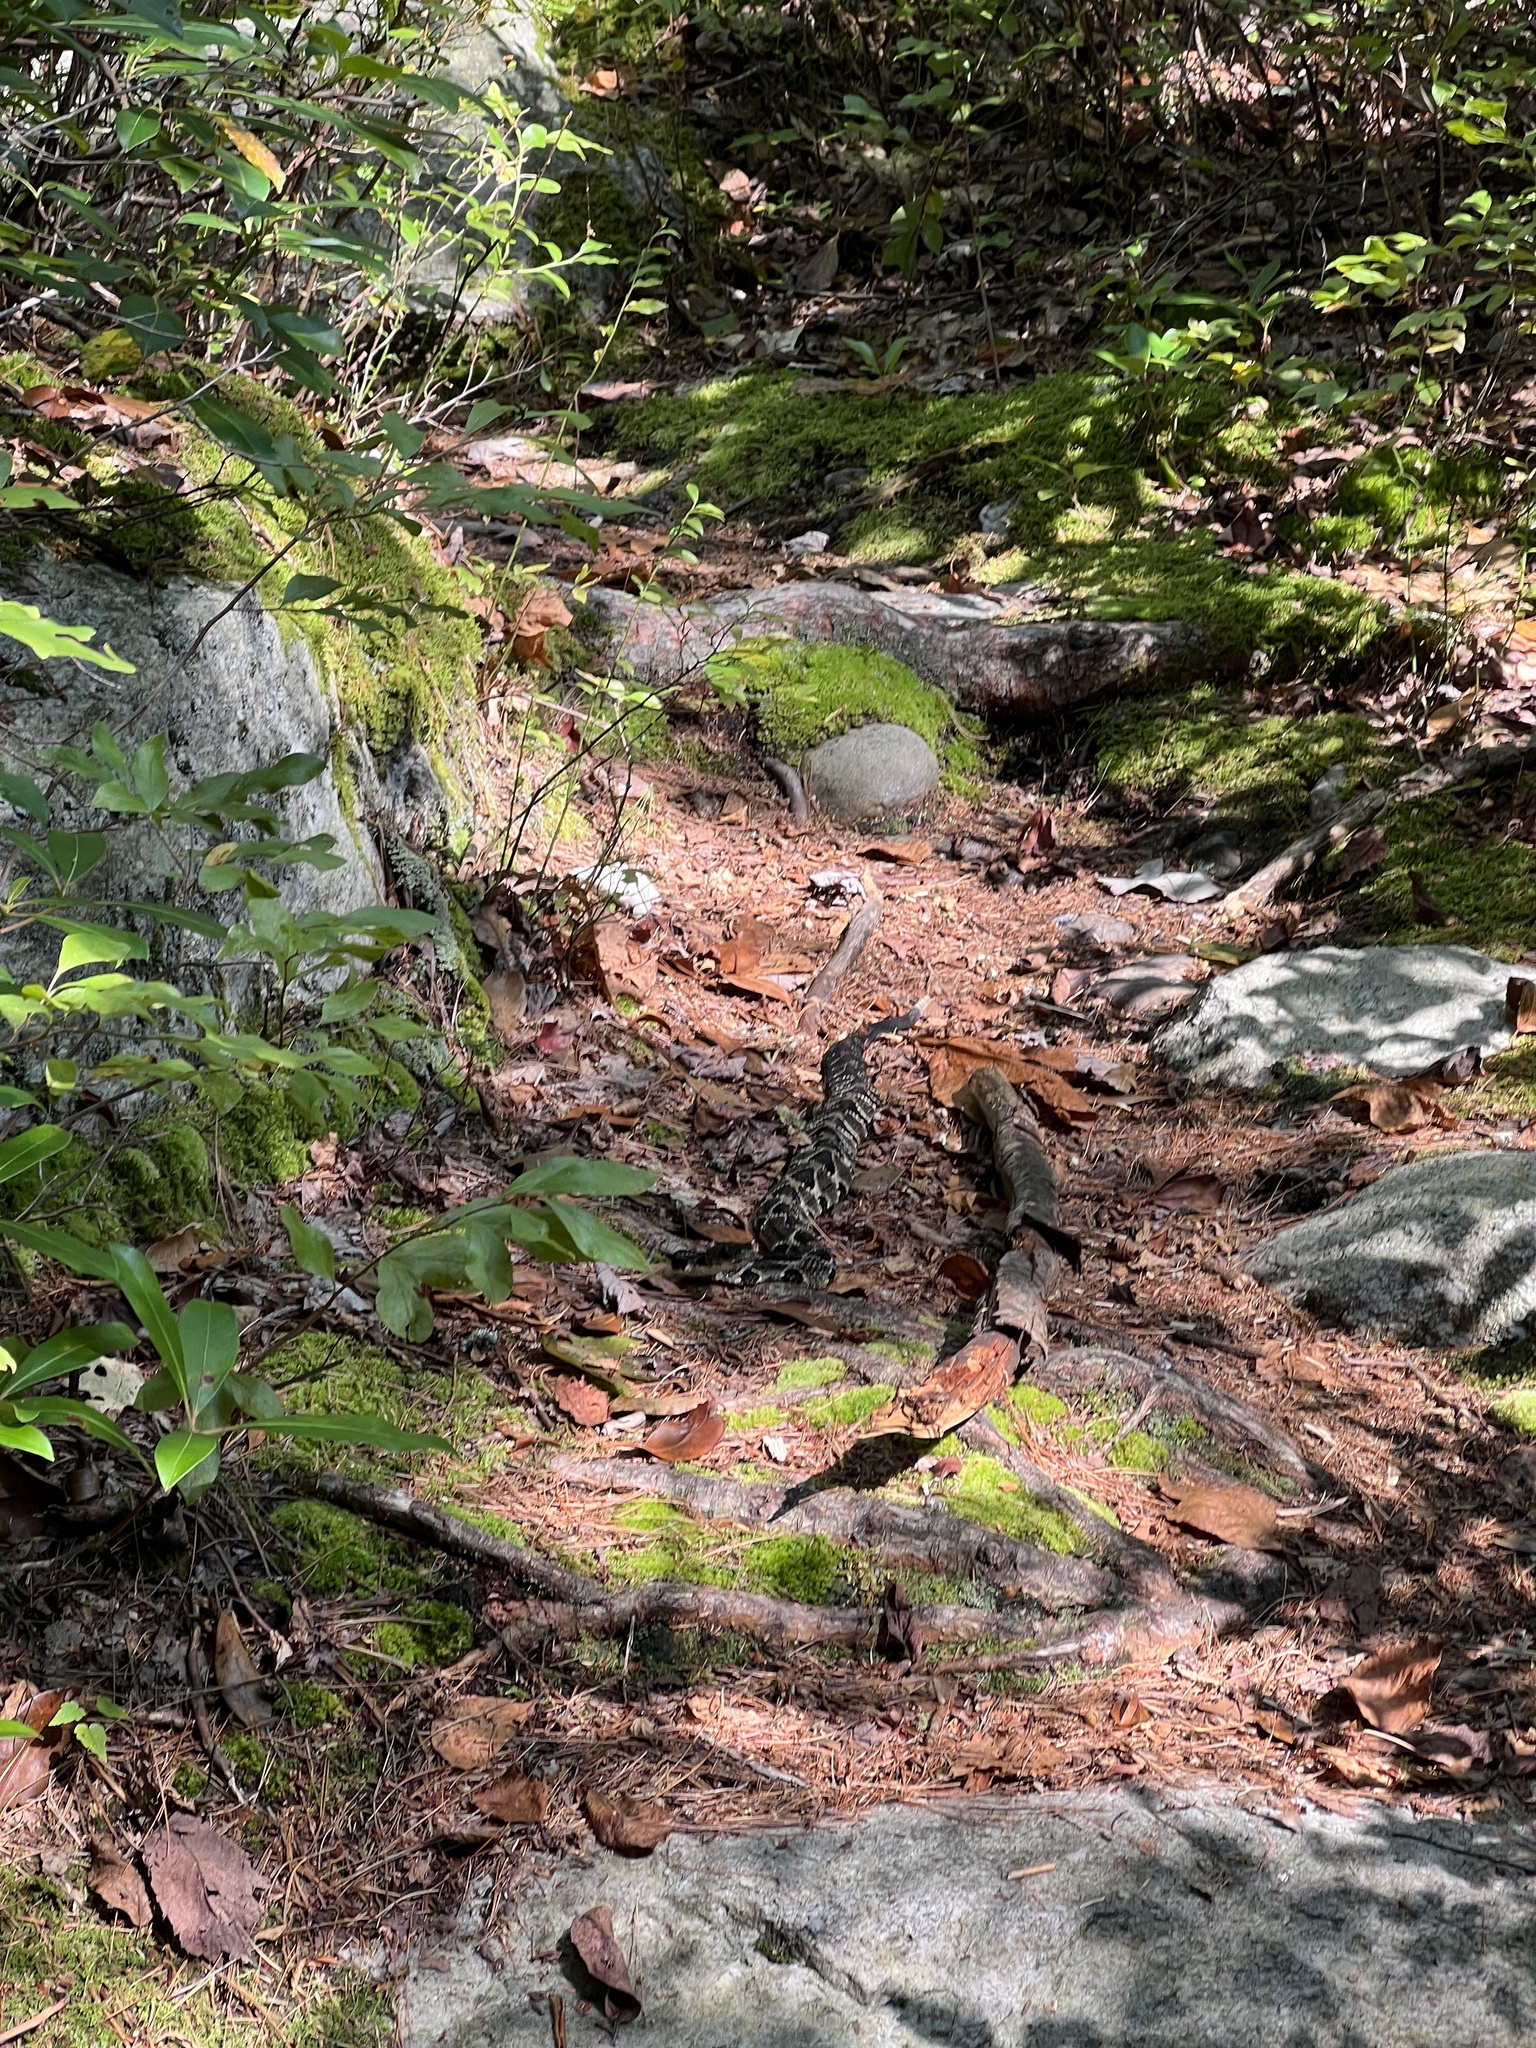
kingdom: Animalia
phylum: Chordata
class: Squamata
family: Viperidae
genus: Crotalus
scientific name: Crotalus horridus
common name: Timber rattlesnake
